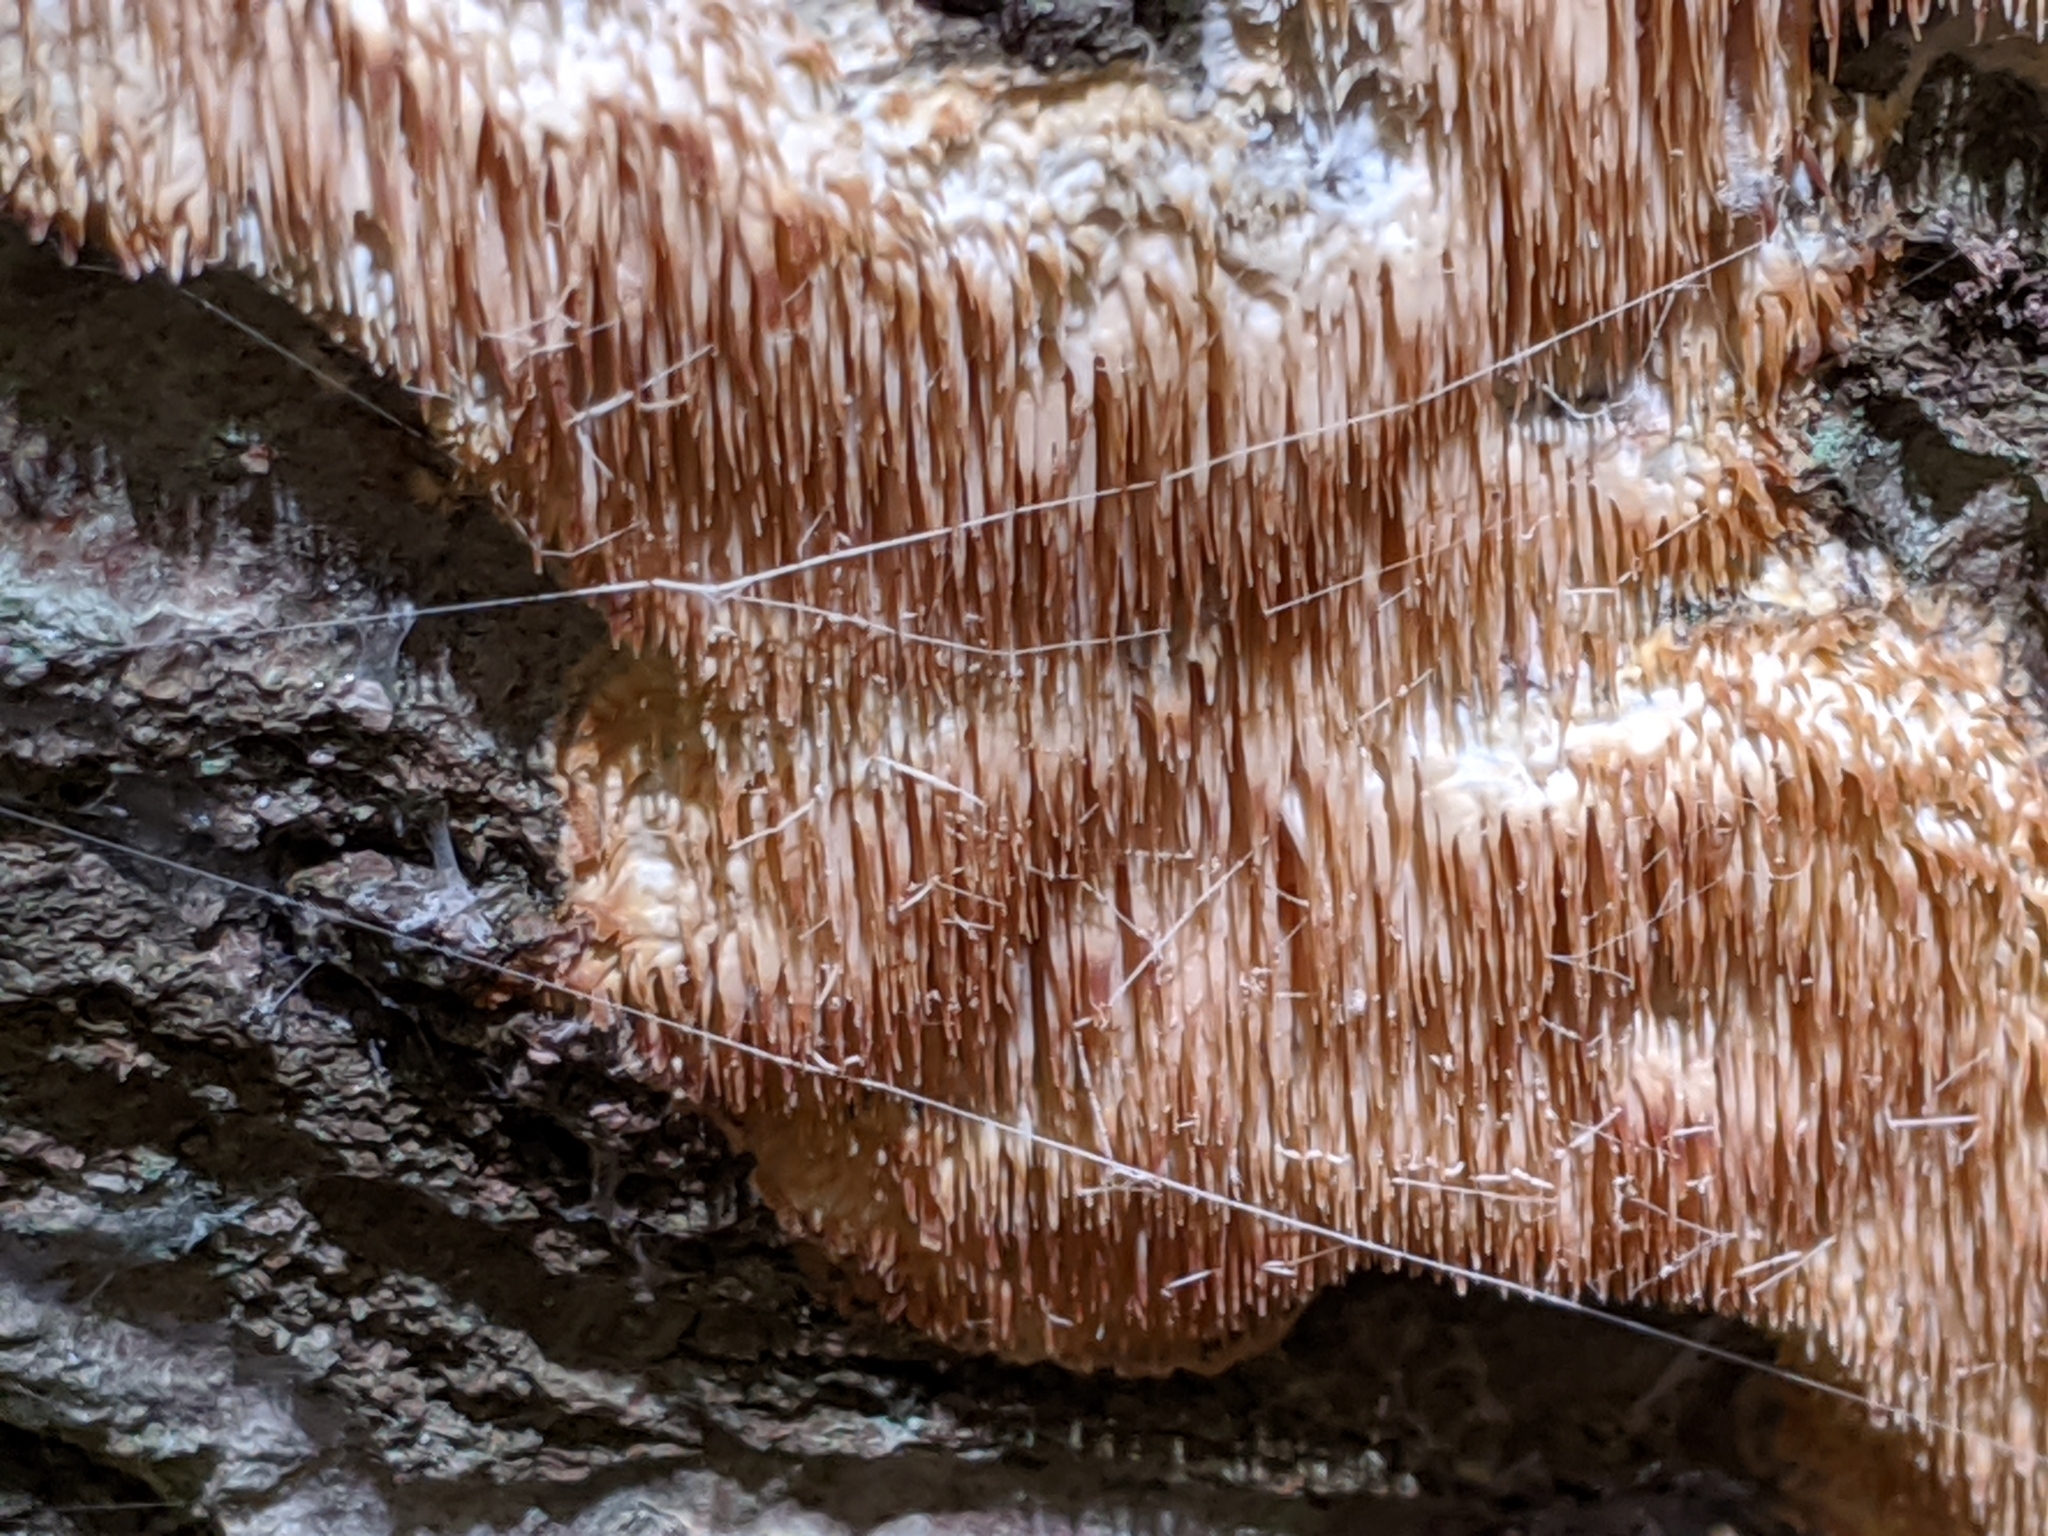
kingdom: Fungi
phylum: Basidiomycota
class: Agaricomycetes
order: Agaricales
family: Radulomycetaceae
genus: Radulomyces
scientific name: Radulomyces copelandii
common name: Asian beauty
